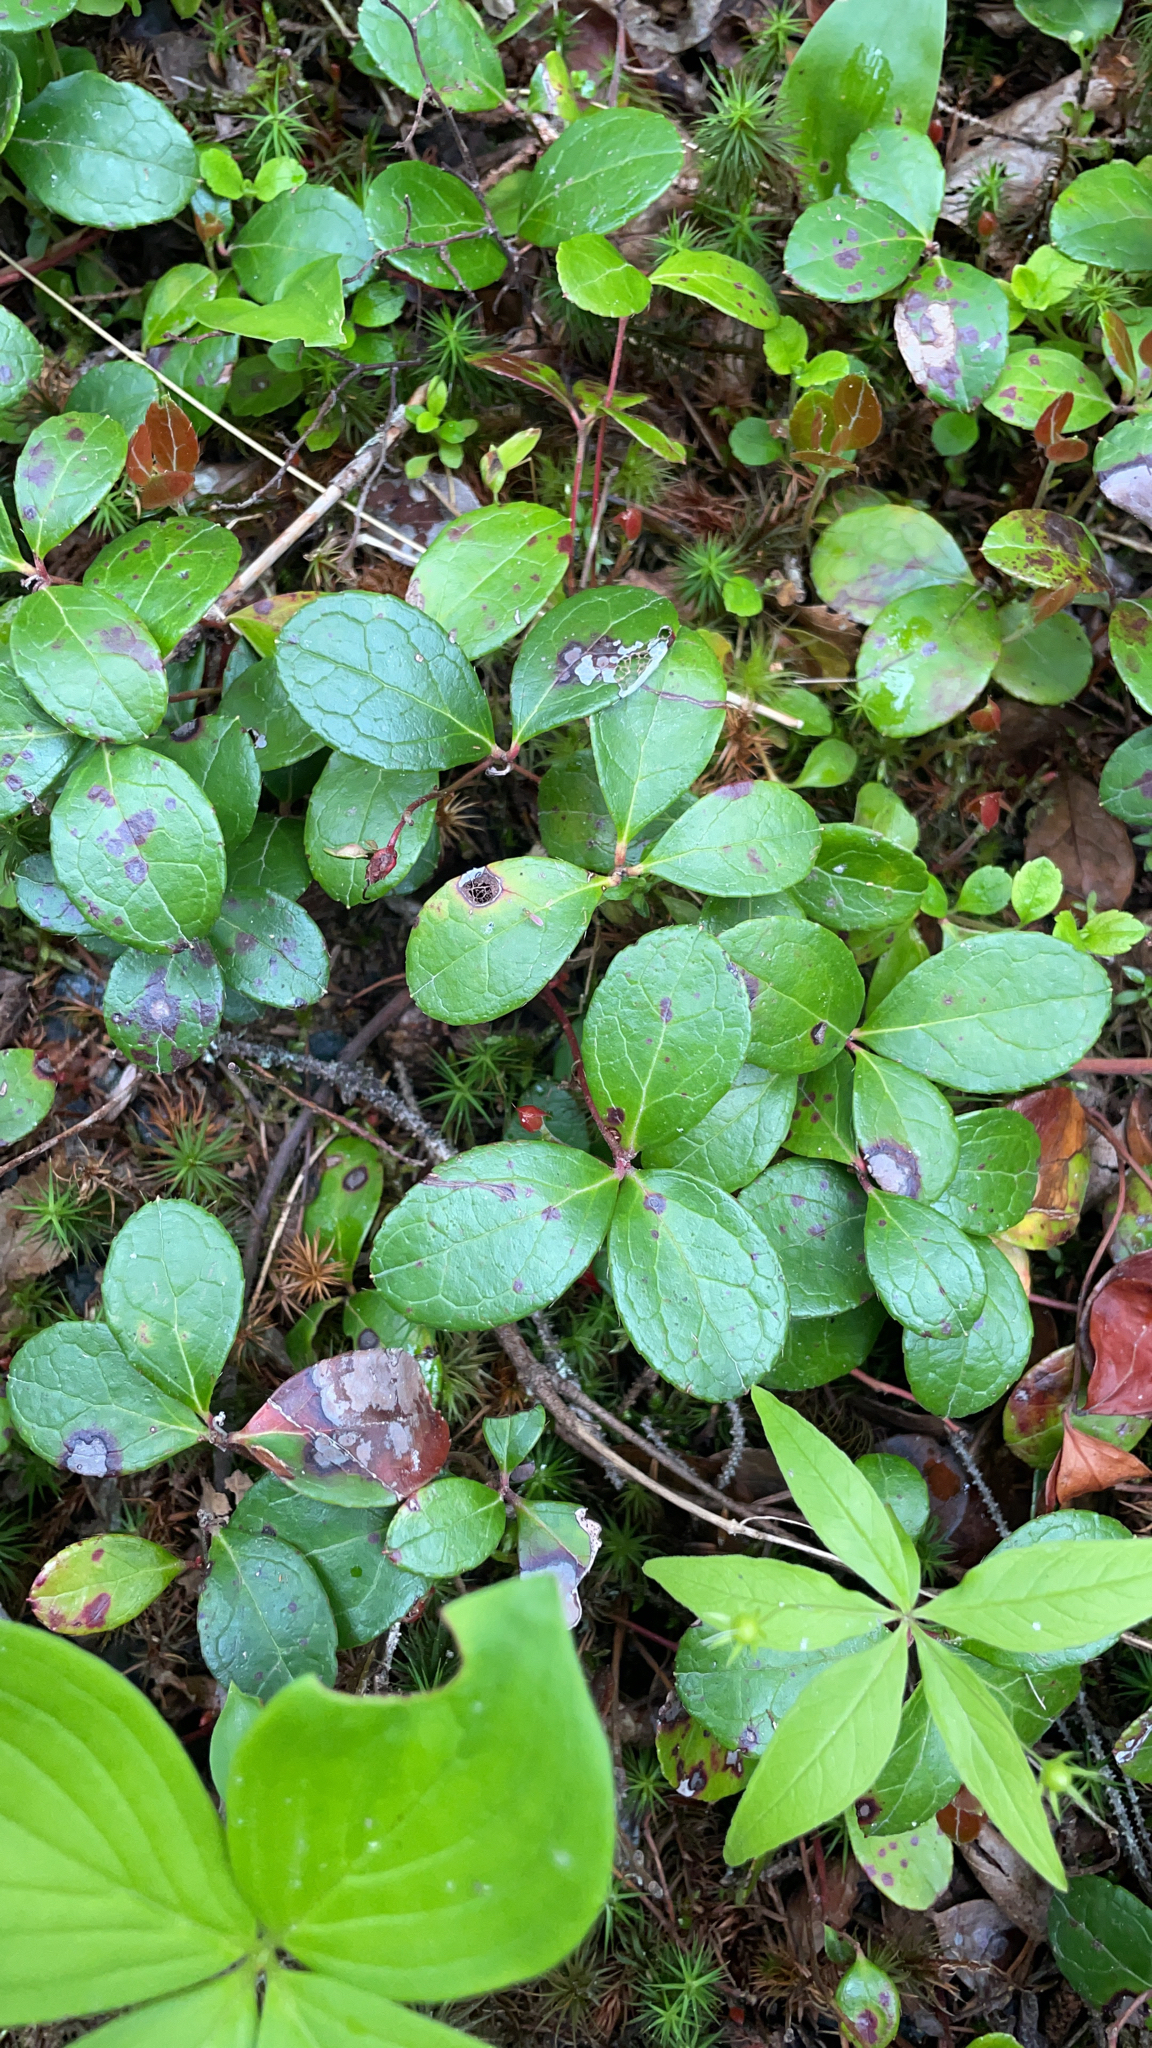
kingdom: Plantae
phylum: Tracheophyta
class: Magnoliopsida
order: Ericales
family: Ericaceae
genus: Gaultheria
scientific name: Gaultheria procumbens
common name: Checkerberry
